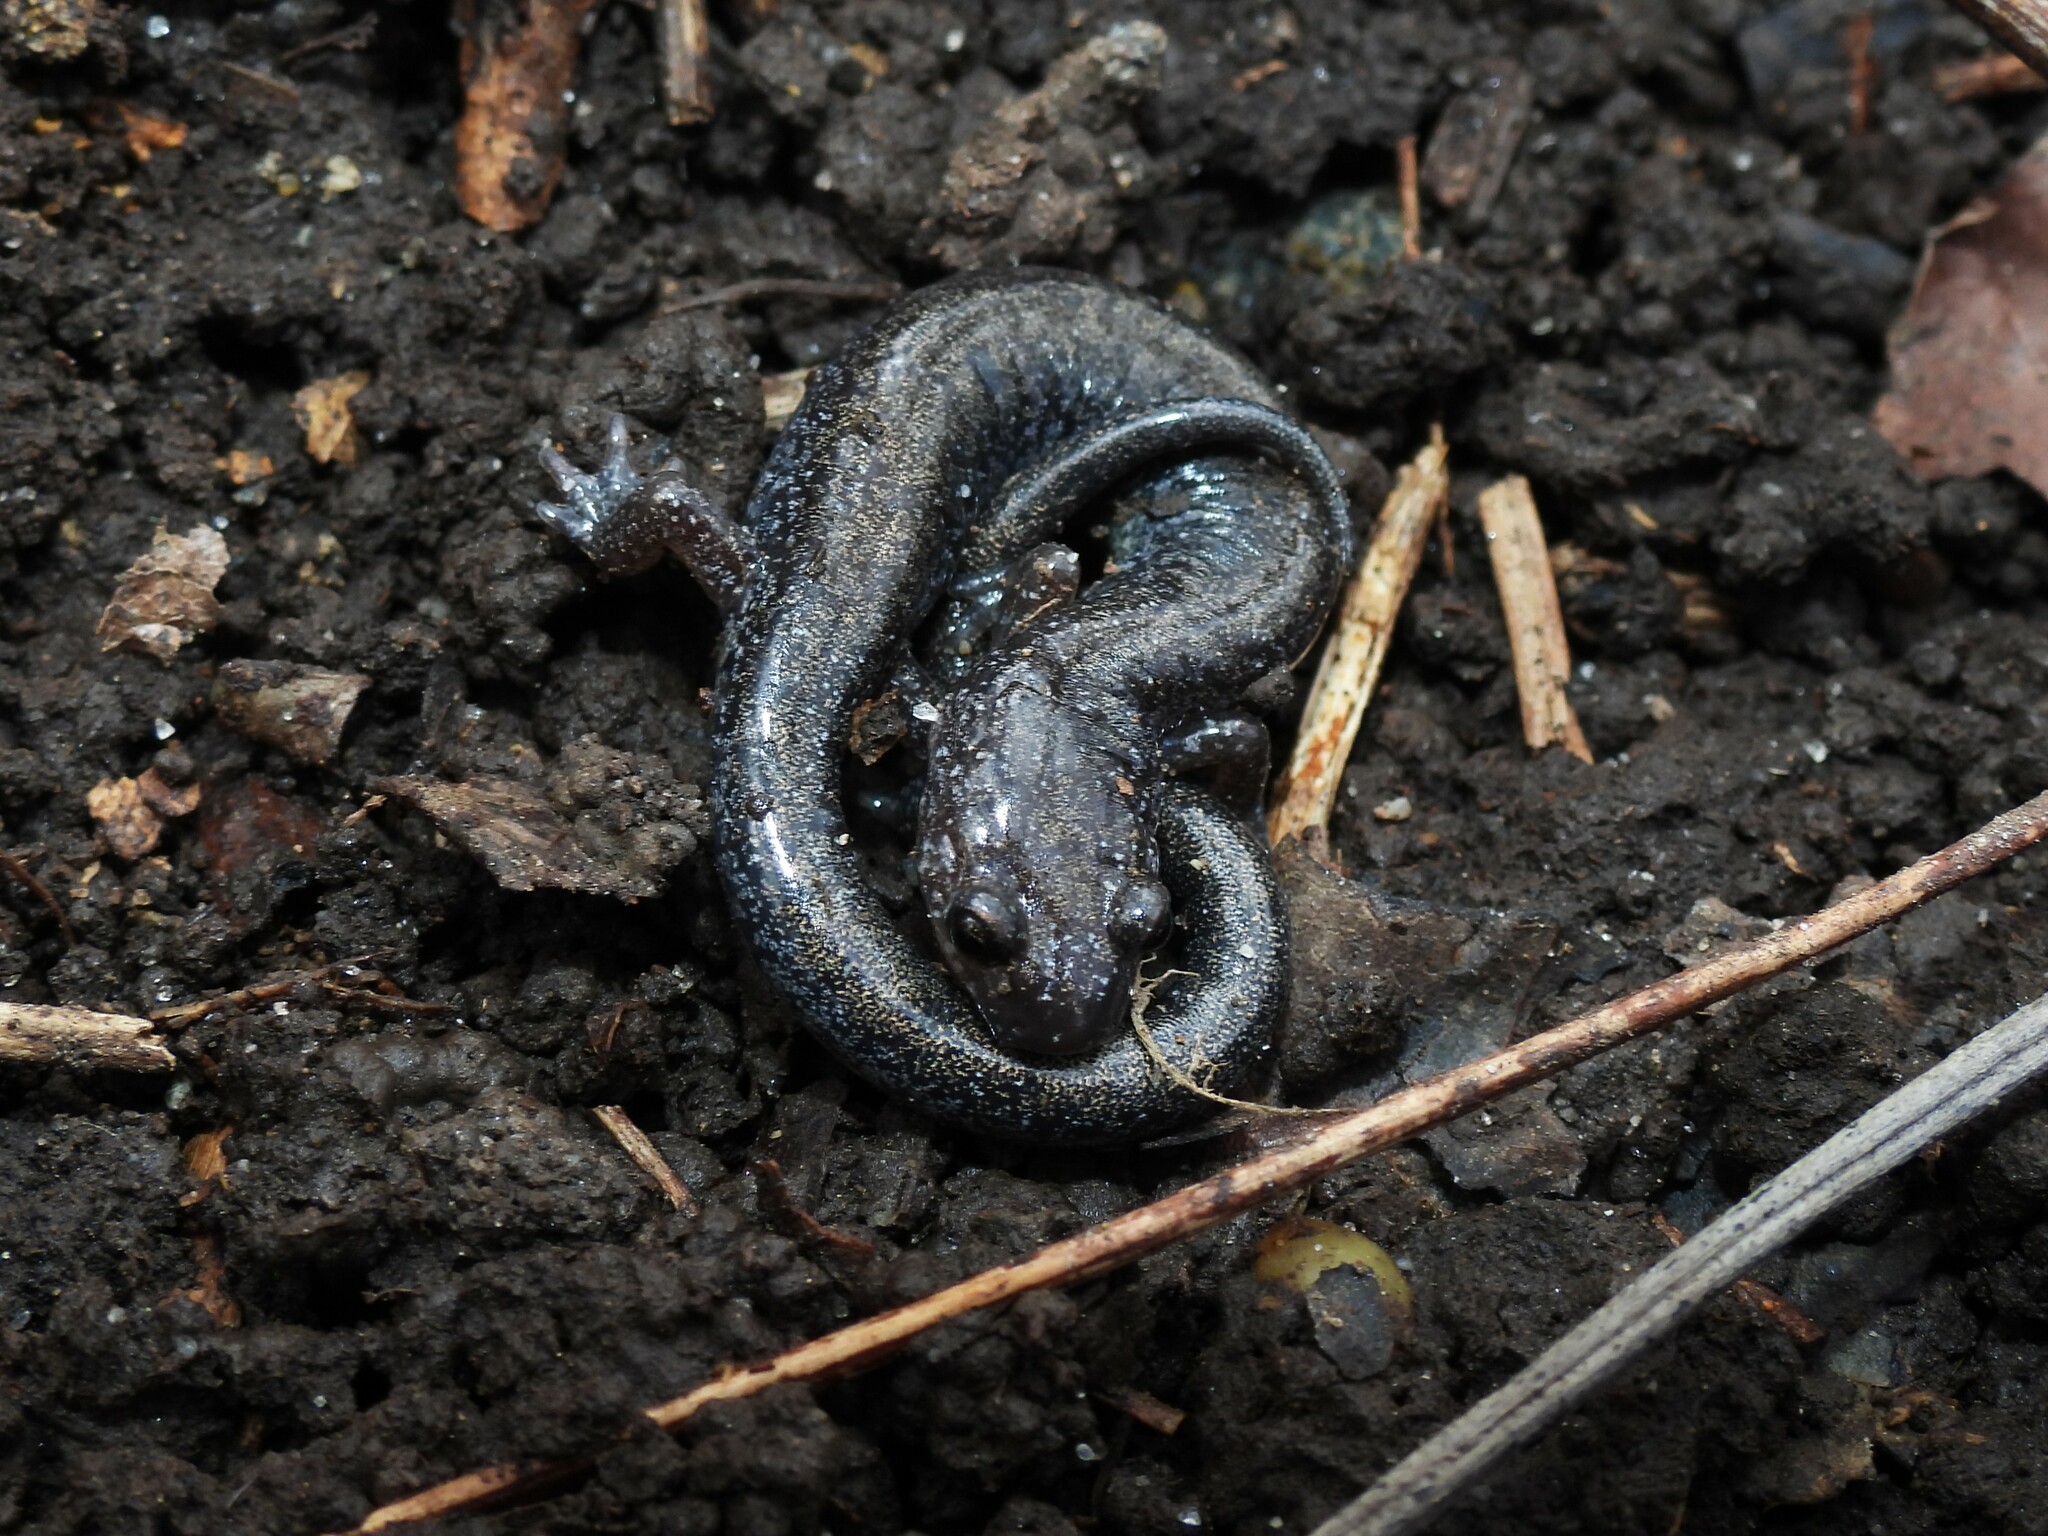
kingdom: Animalia
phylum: Chordata
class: Amphibia
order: Caudata
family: Plethodontidae
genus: Plethodon
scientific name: Plethodon cinereus
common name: Redback salamander
